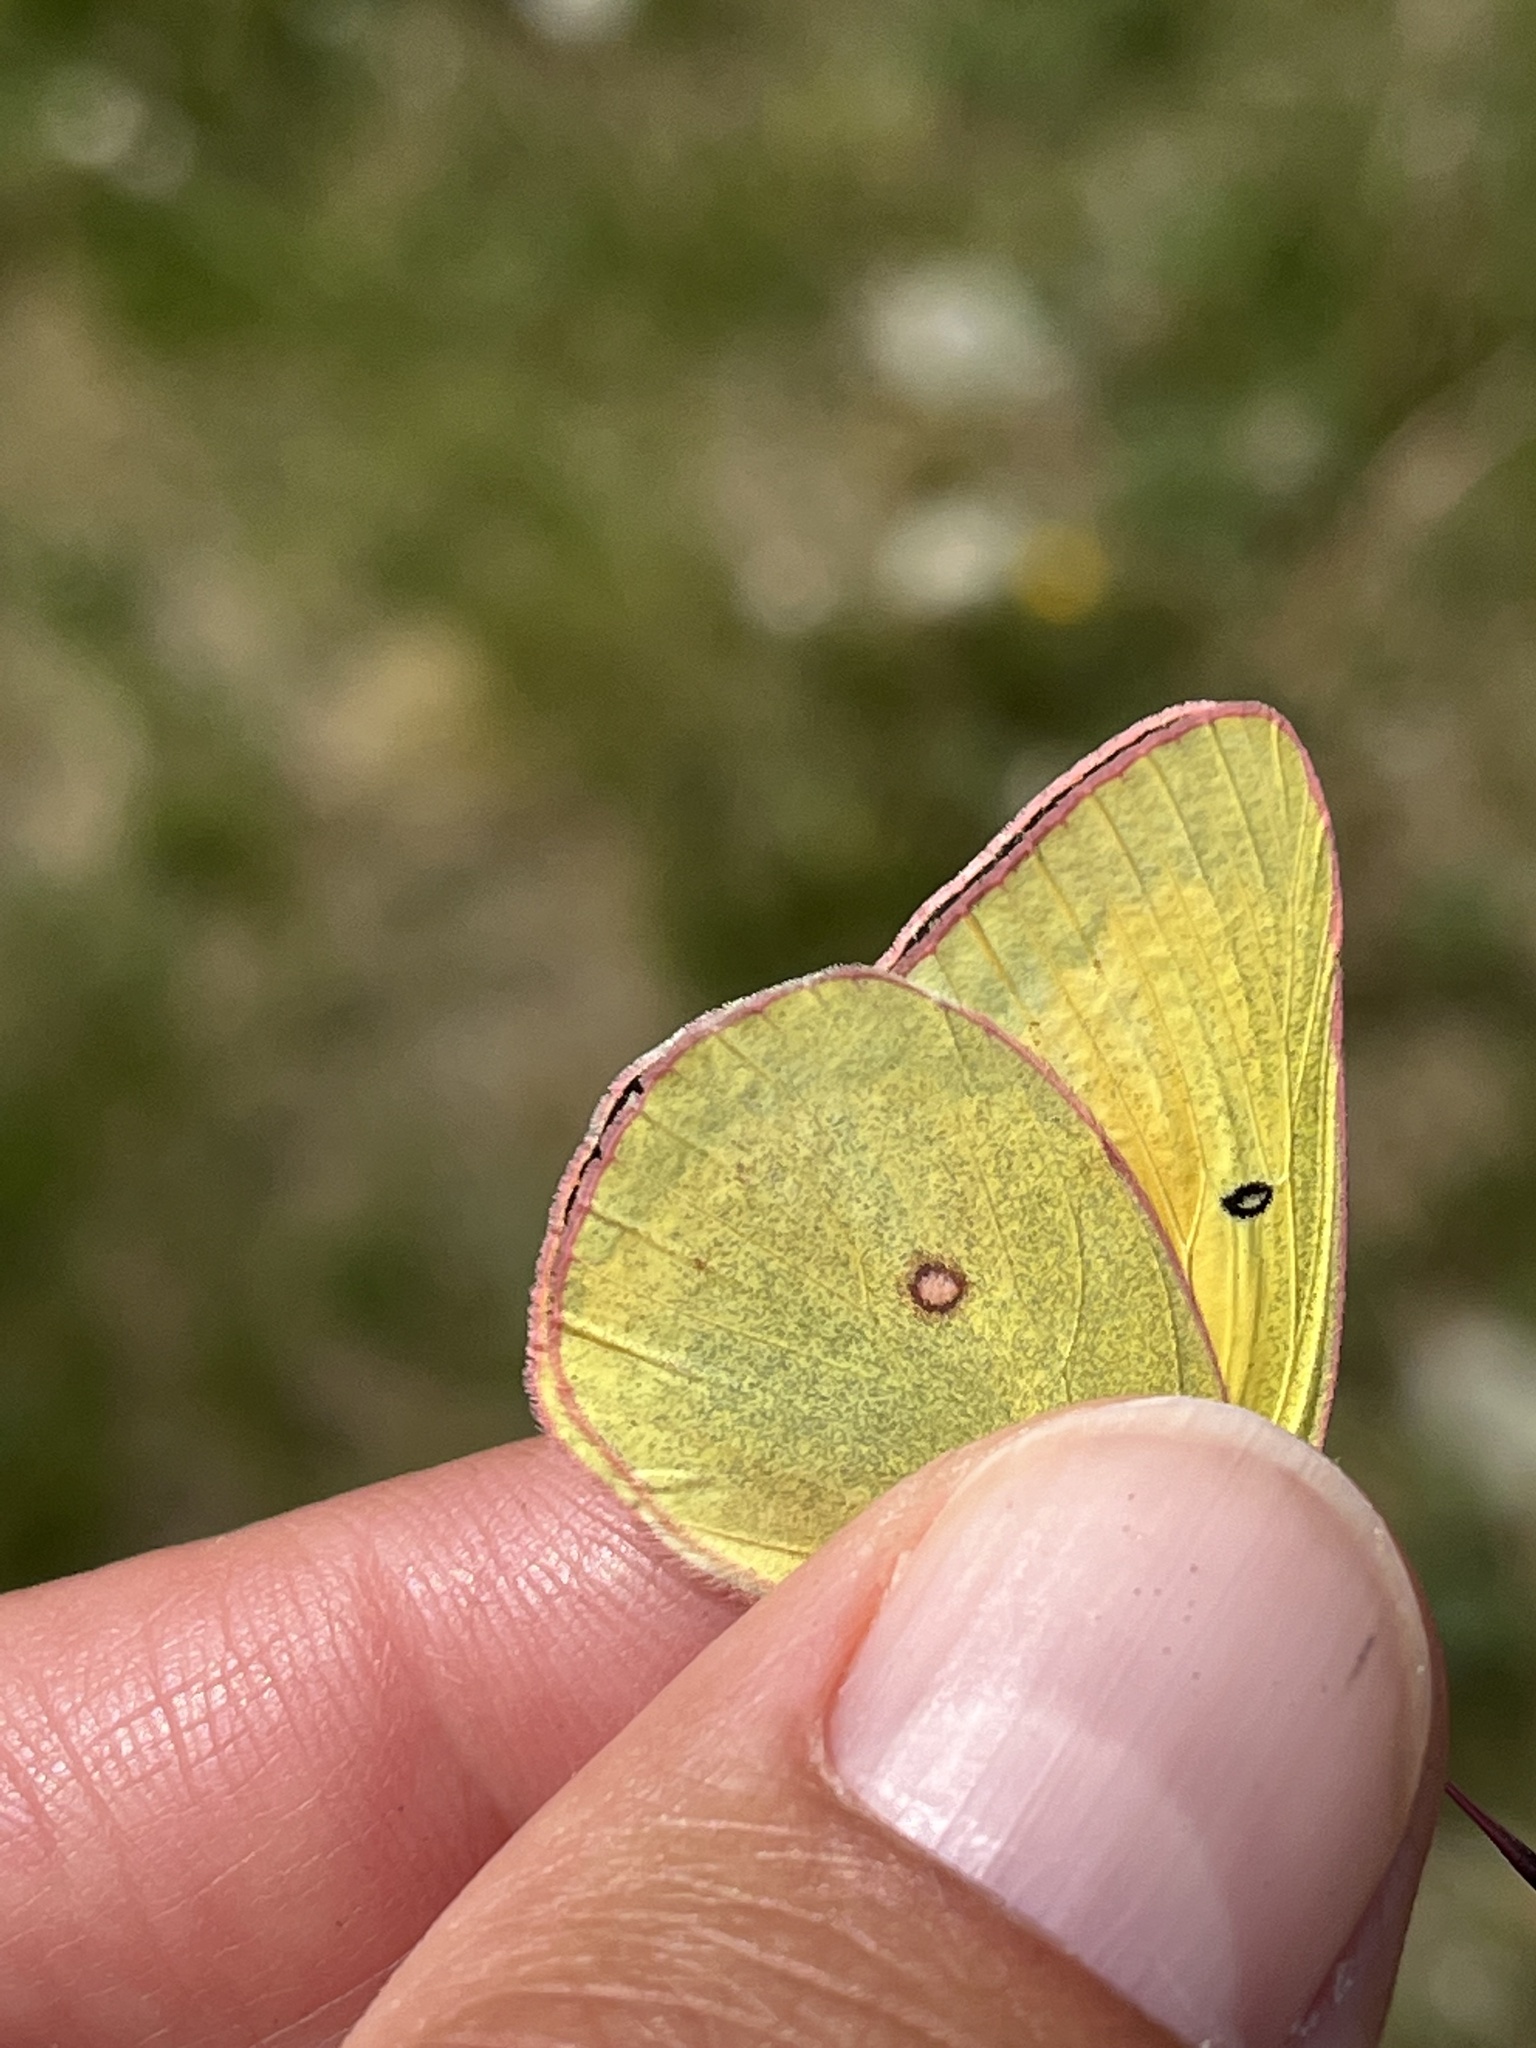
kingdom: Animalia
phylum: Arthropoda
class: Insecta
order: Lepidoptera
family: Pieridae
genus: Colias
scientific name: Colias christina
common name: Christina sulphur
